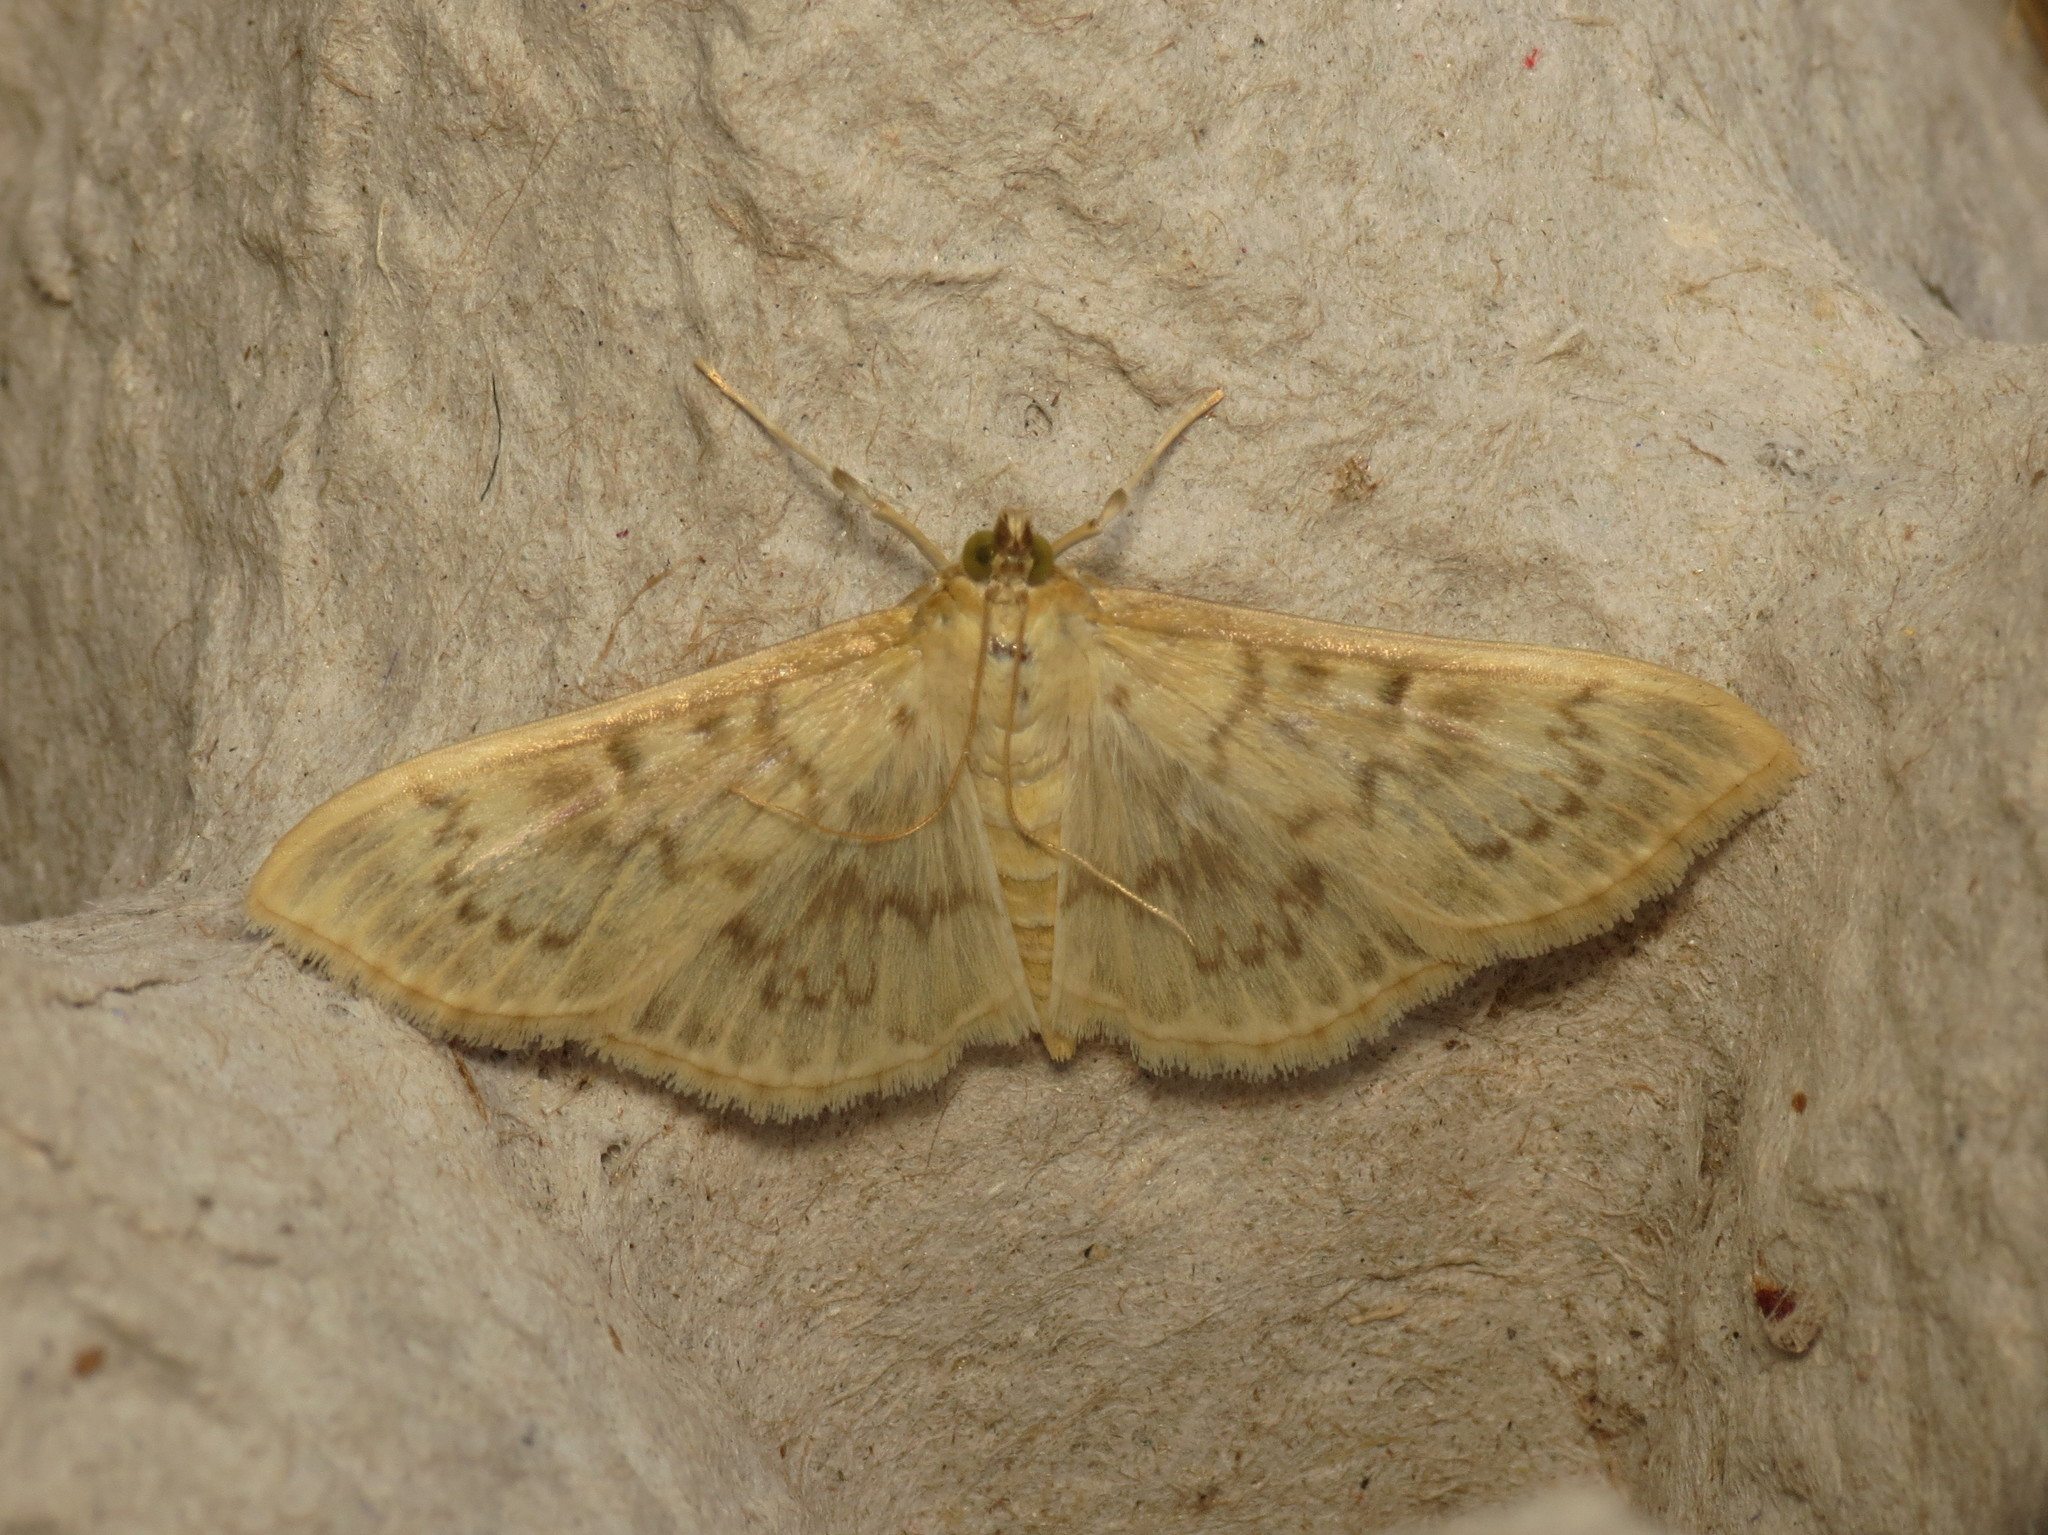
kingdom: Animalia
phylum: Arthropoda
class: Insecta
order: Lepidoptera
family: Crambidae
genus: Patania
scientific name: Patania ruralis
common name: Mother of pearl
